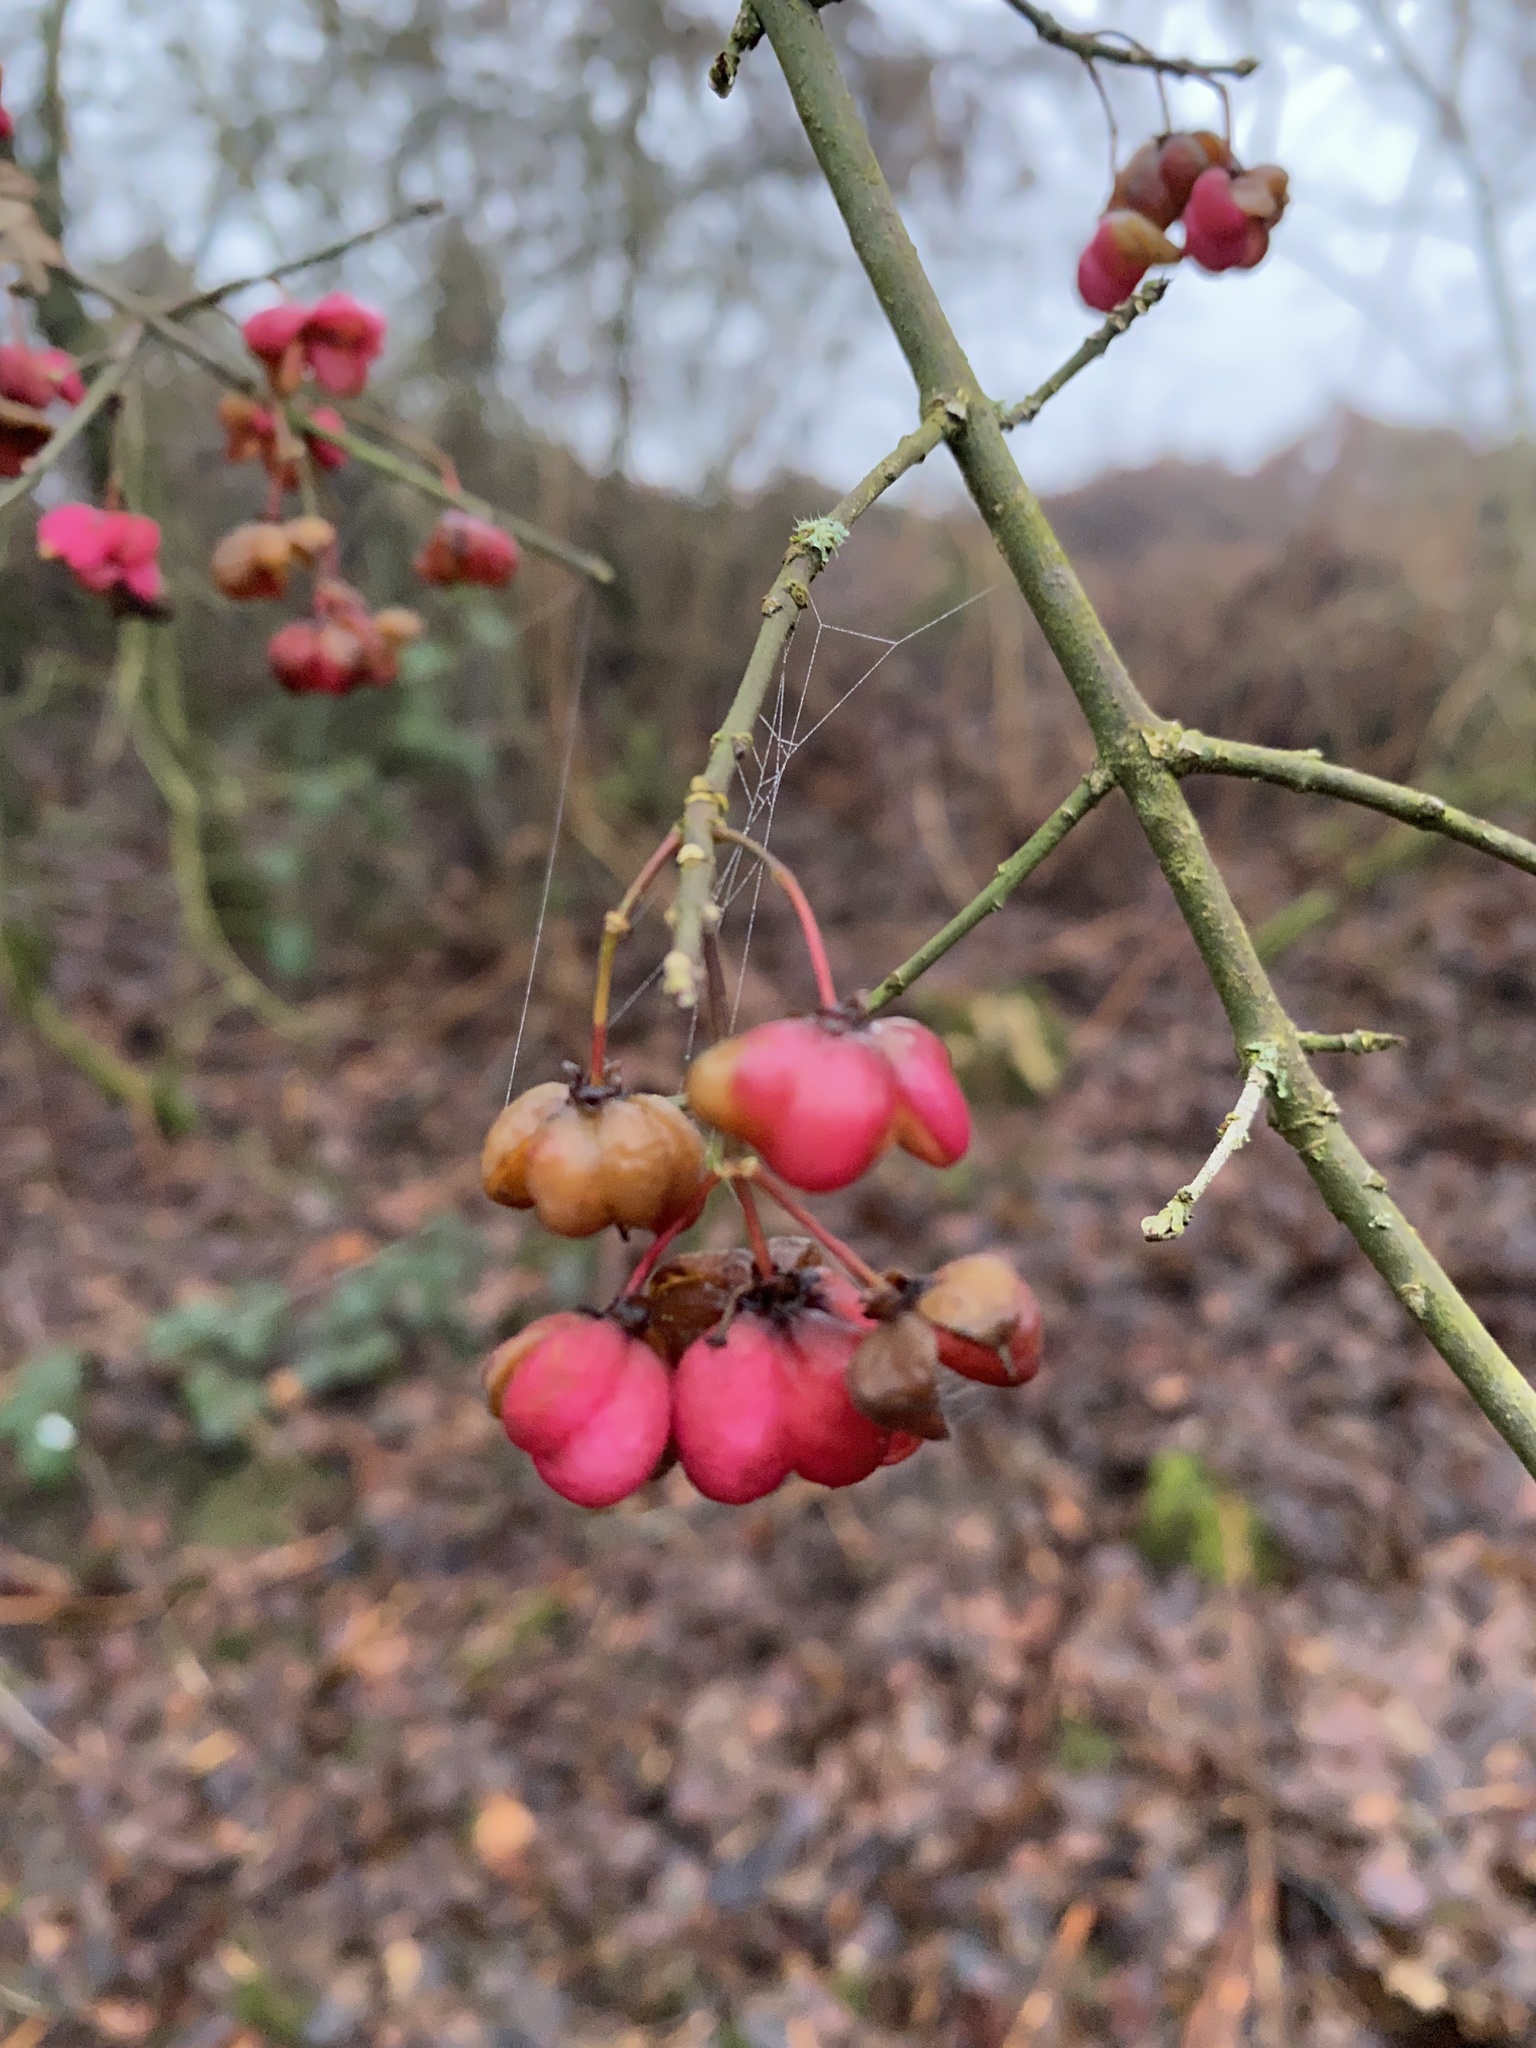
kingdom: Plantae
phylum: Tracheophyta
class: Magnoliopsida
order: Celastrales
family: Celastraceae
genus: Euonymus
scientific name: Euonymus europaeus
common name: Spindle
